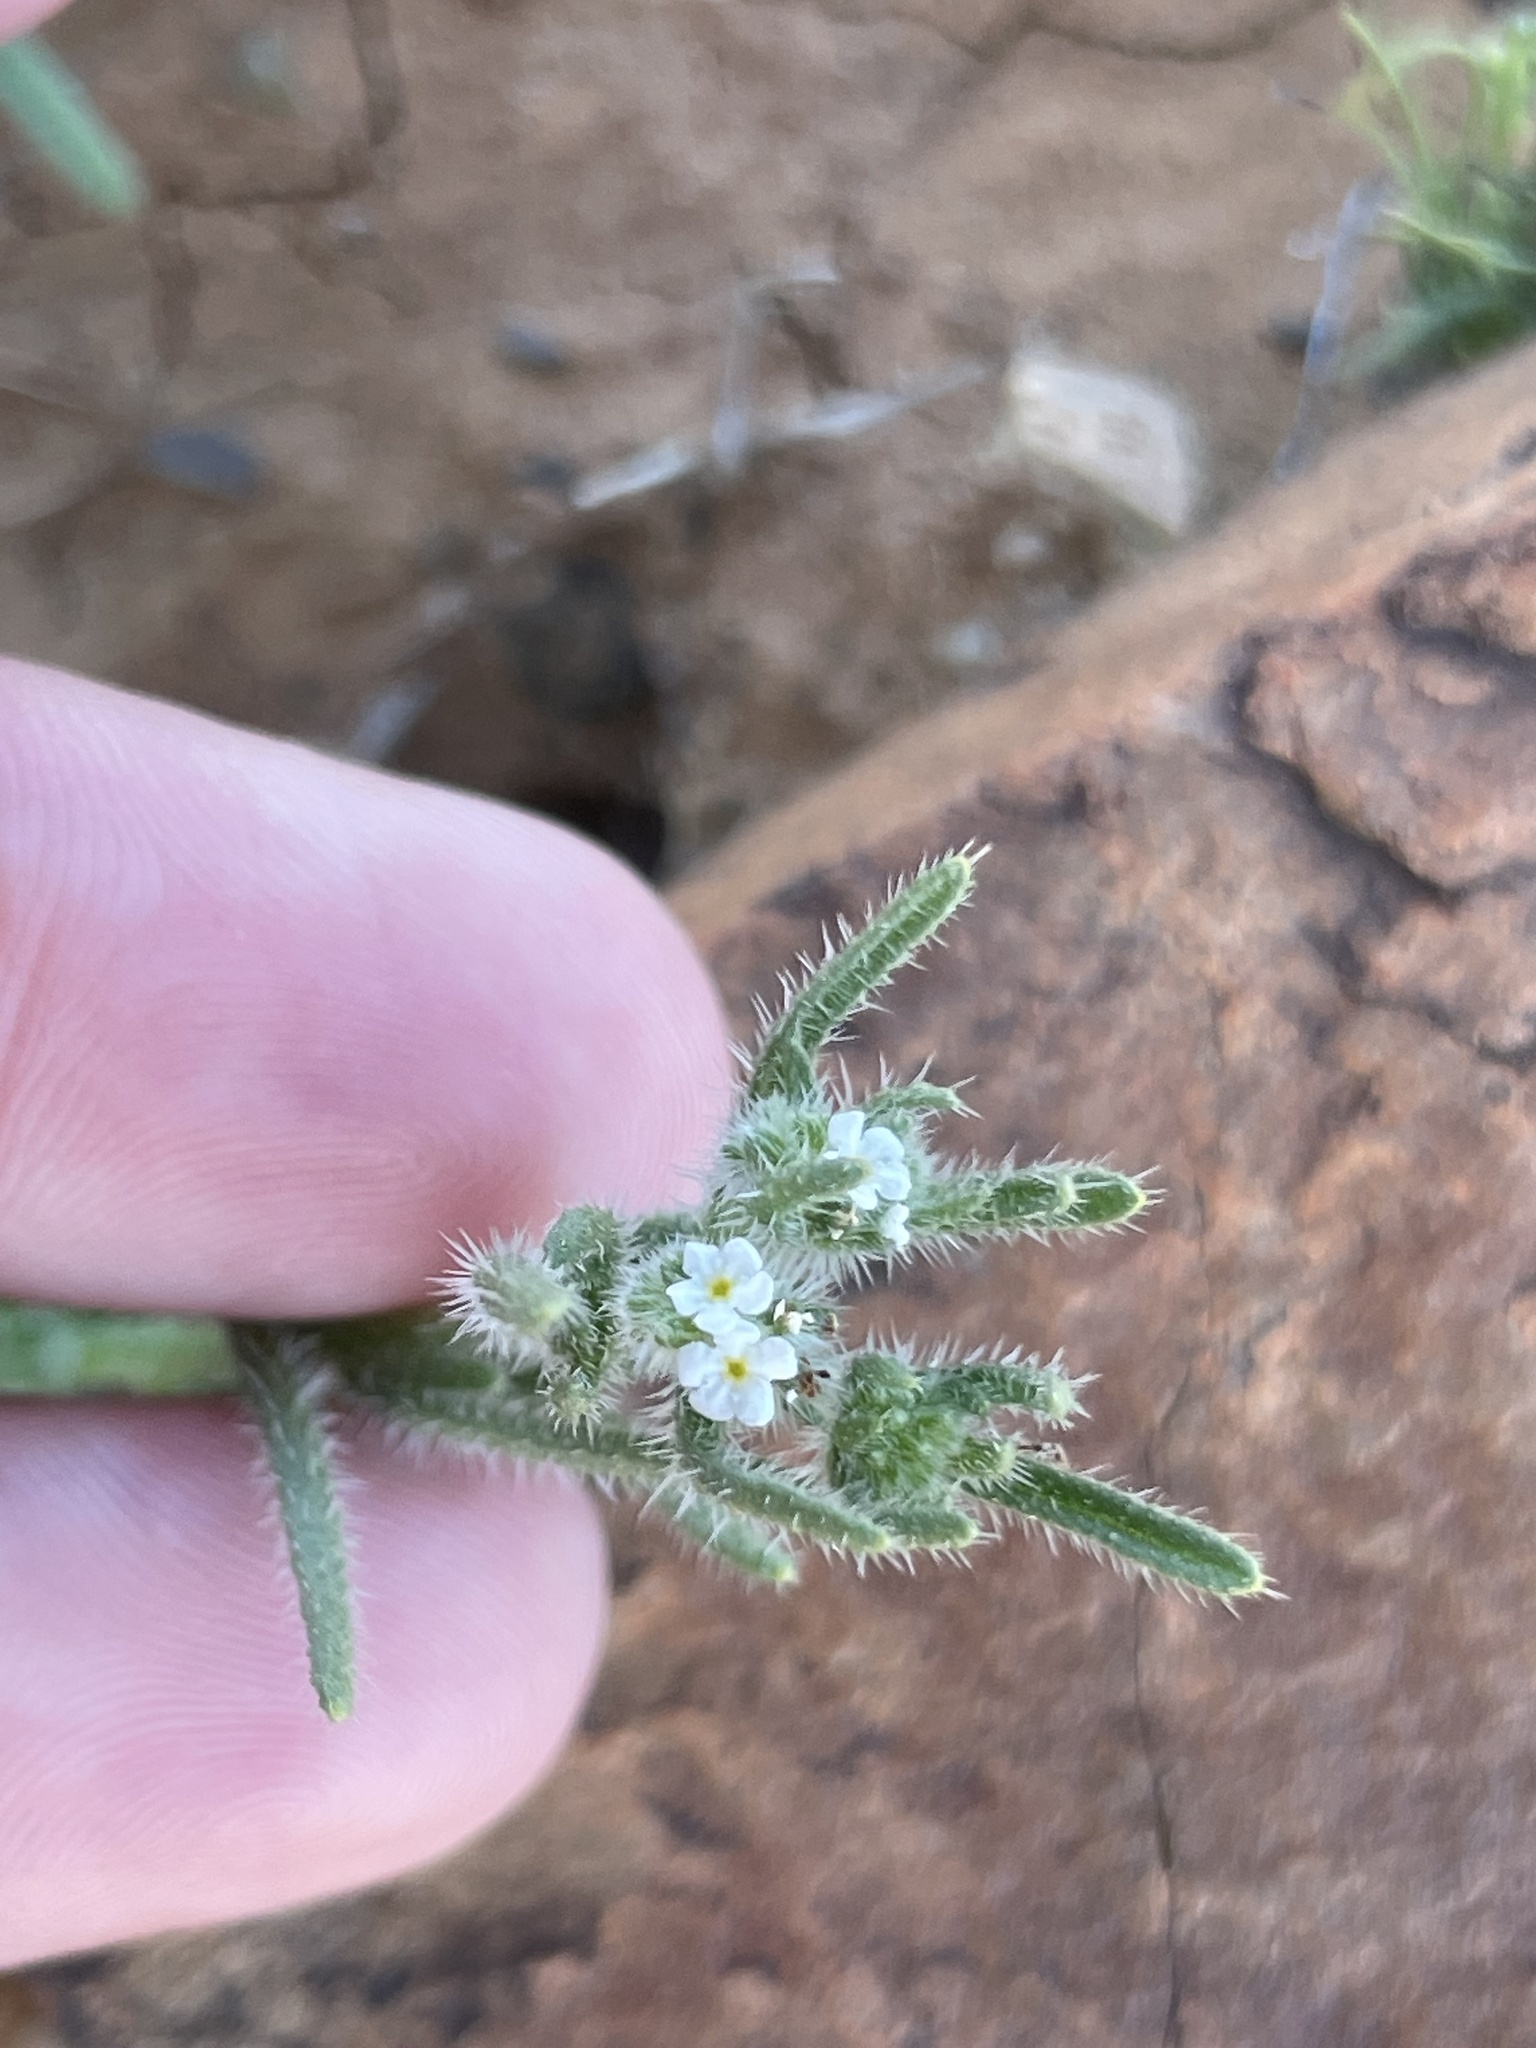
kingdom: Plantae
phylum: Tracheophyta
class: Magnoliopsida
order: Boraginales
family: Boraginaceae
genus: Cryptantha
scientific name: Cryptantha maritima
